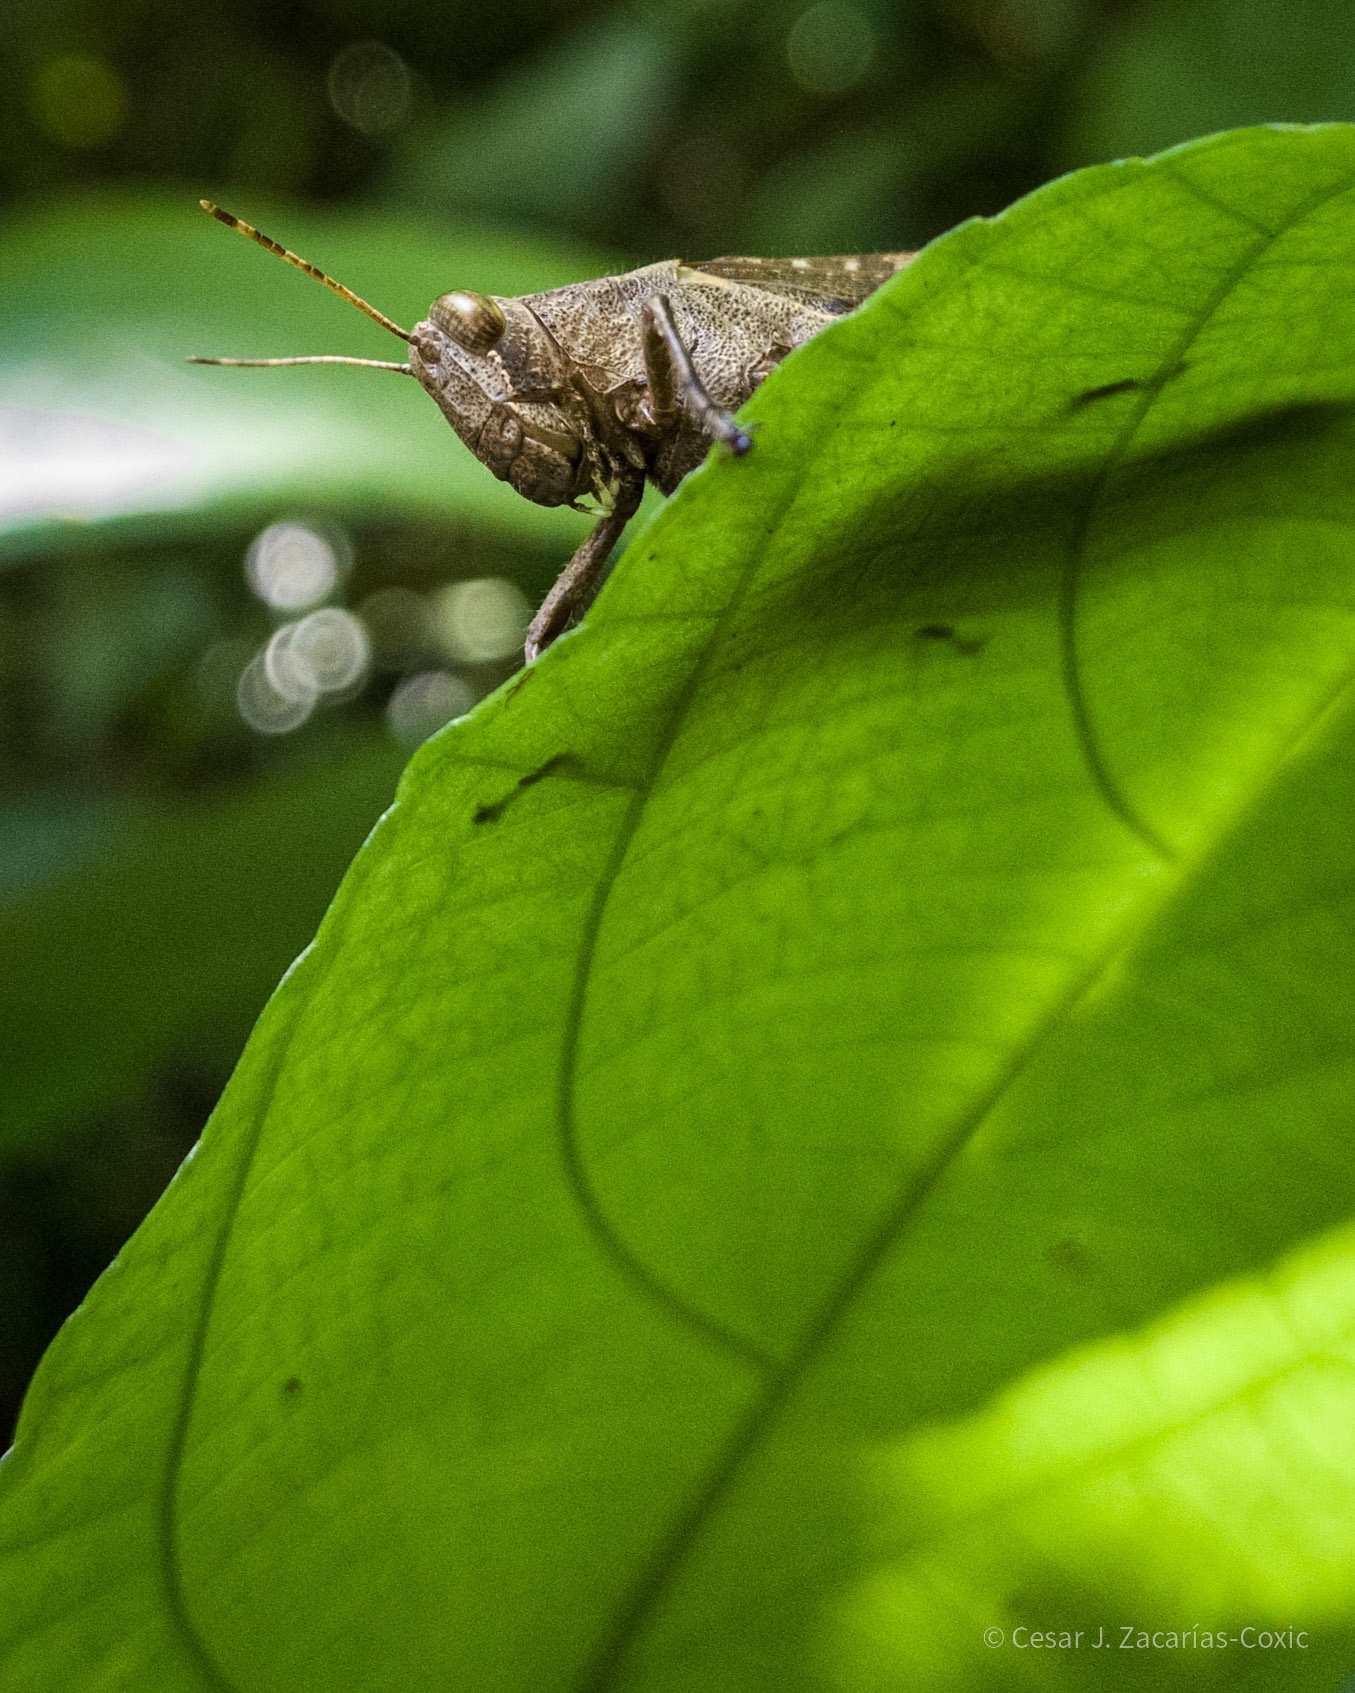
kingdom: Animalia
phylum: Arthropoda
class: Insecta
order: Orthoptera
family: Acrididae
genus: Abracris
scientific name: Abracris flavolineata
